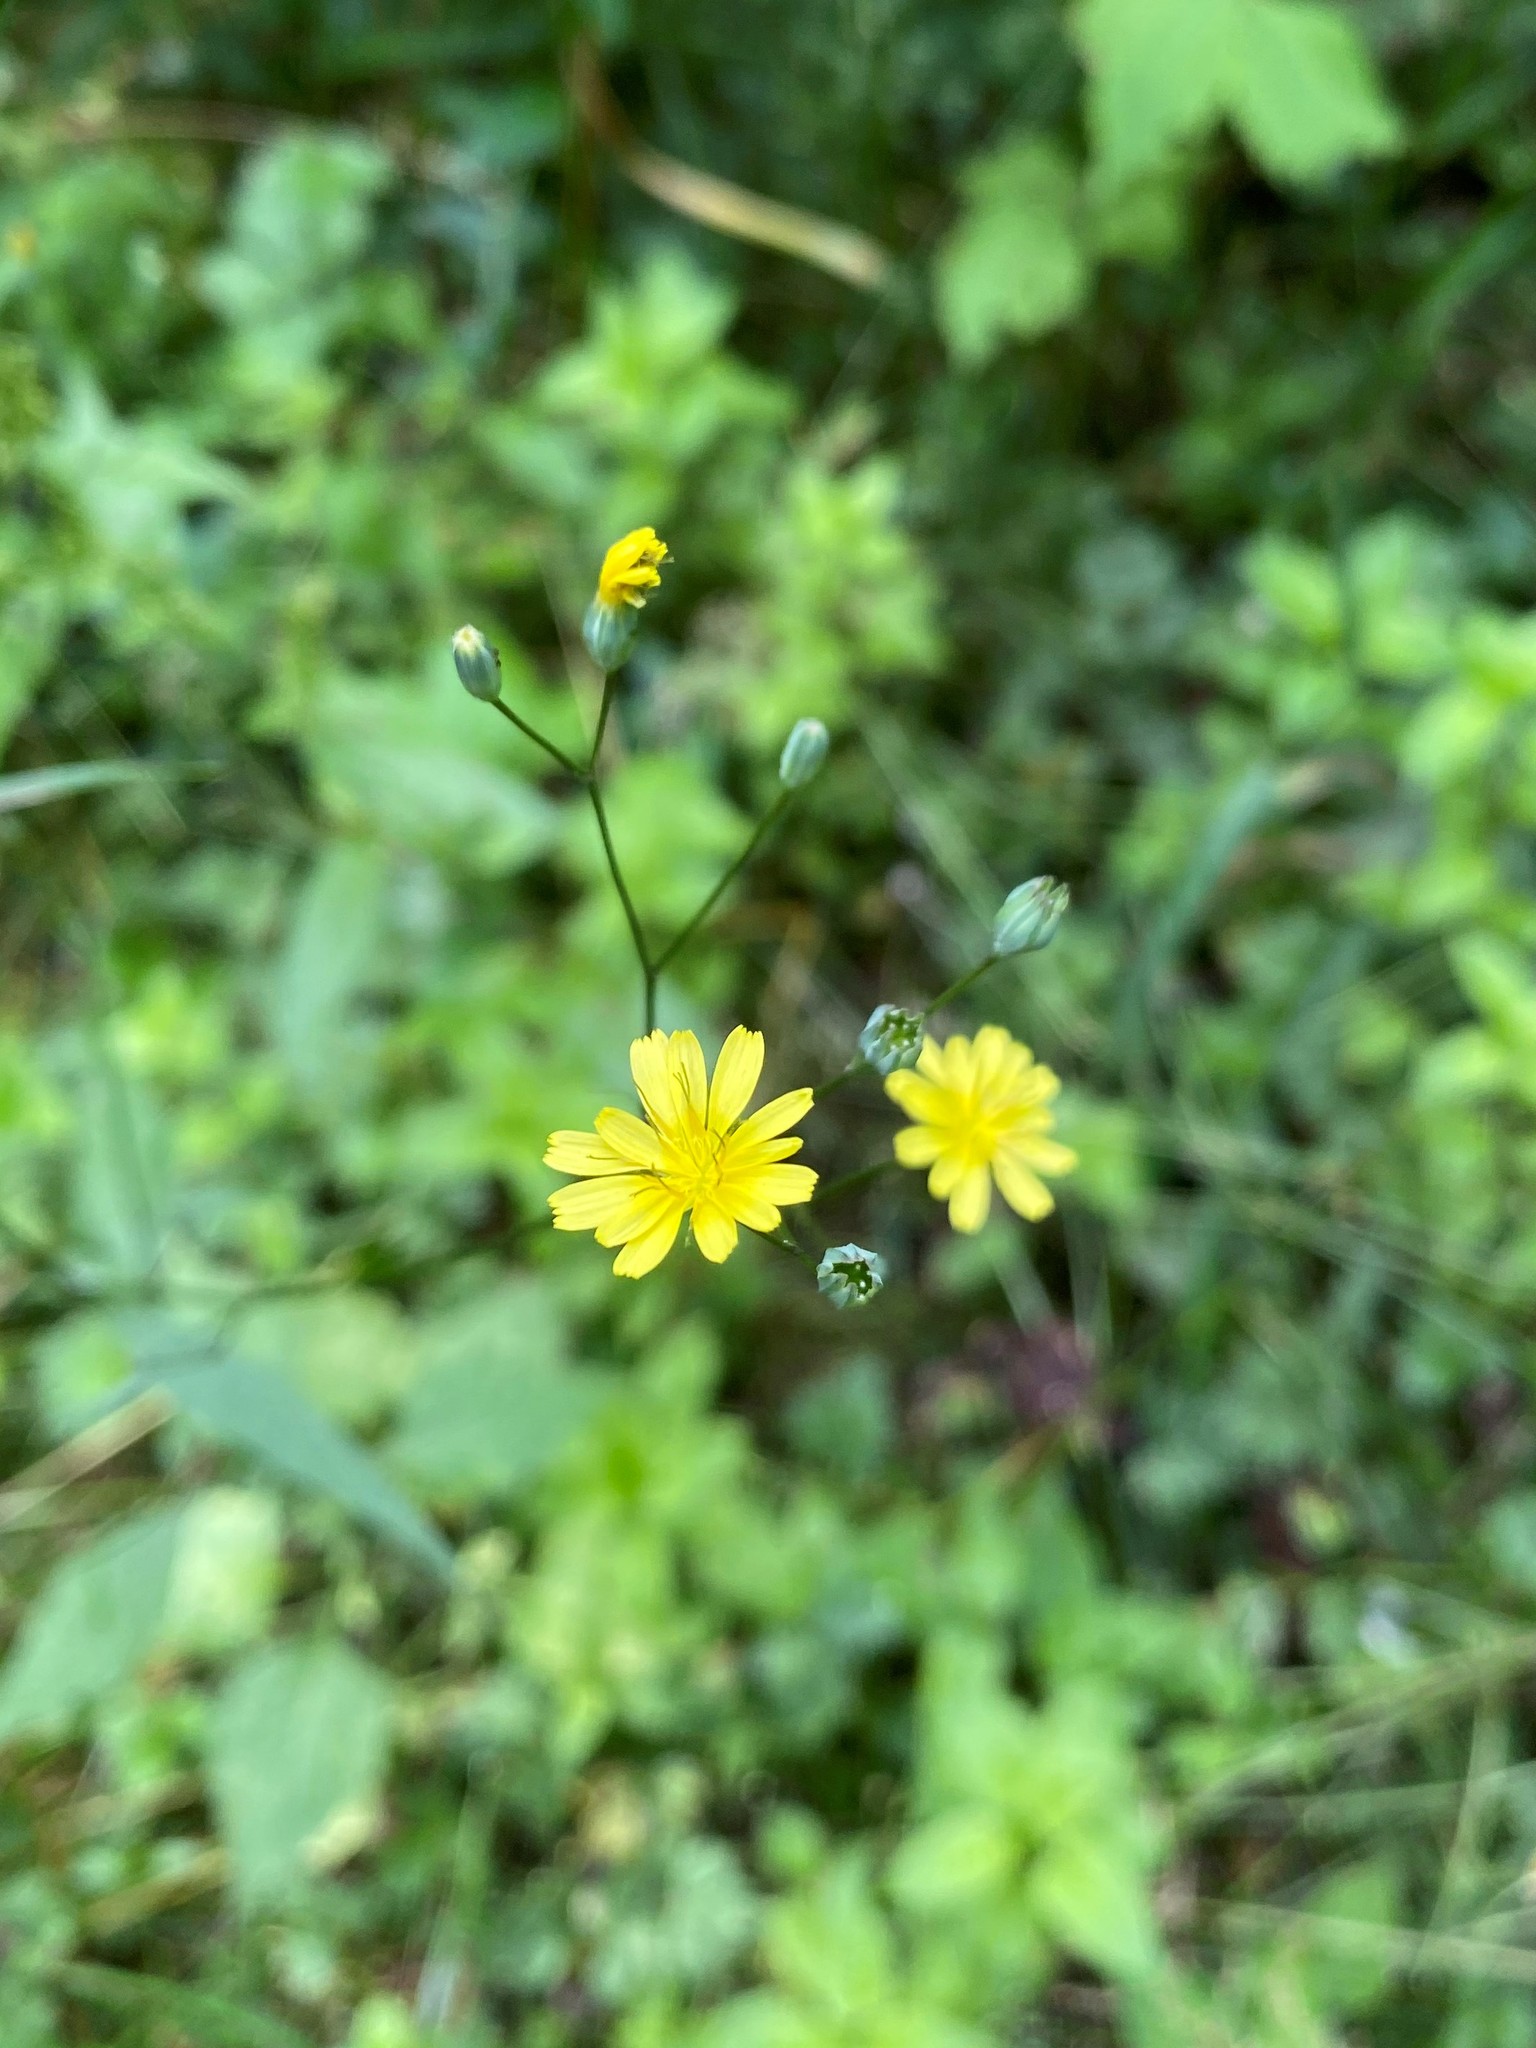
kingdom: Plantae
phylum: Tracheophyta
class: Magnoliopsida
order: Asterales
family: Asteraceae
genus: Lapsana
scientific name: Lapsana communis
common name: Nipplewort
